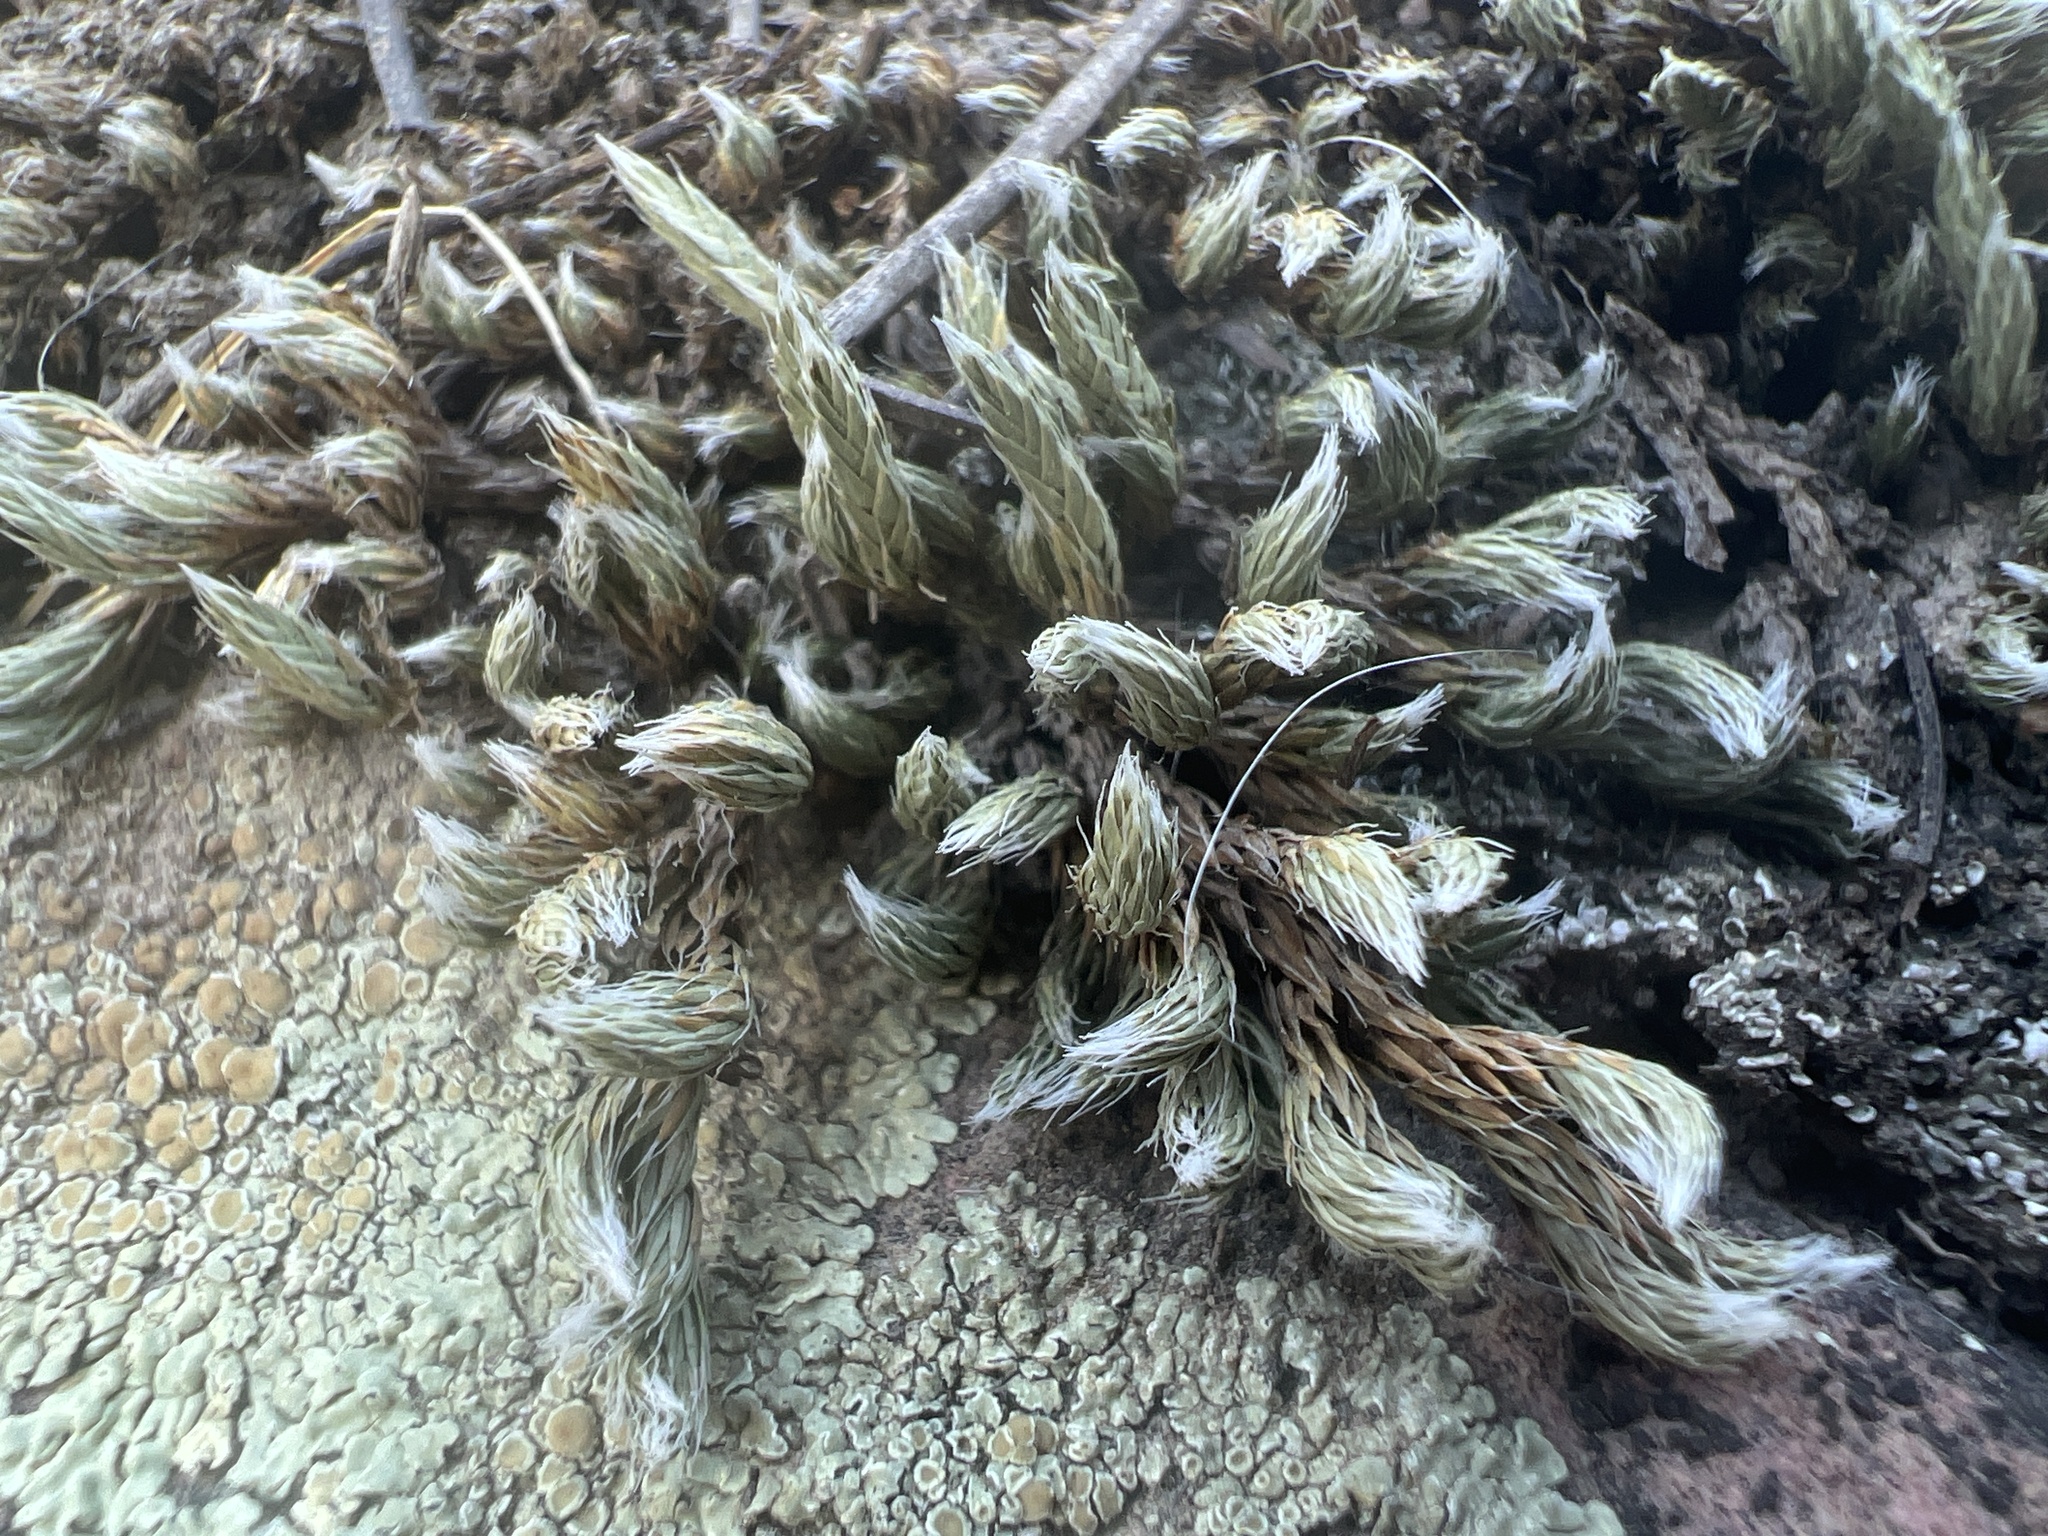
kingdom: Plantae
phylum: Tracheophyta
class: Lycopodiopsida
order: Selaginellales
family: Selaginellaceae
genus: Selaginella
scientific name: Selaginella densa
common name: Mountain spike-moss
